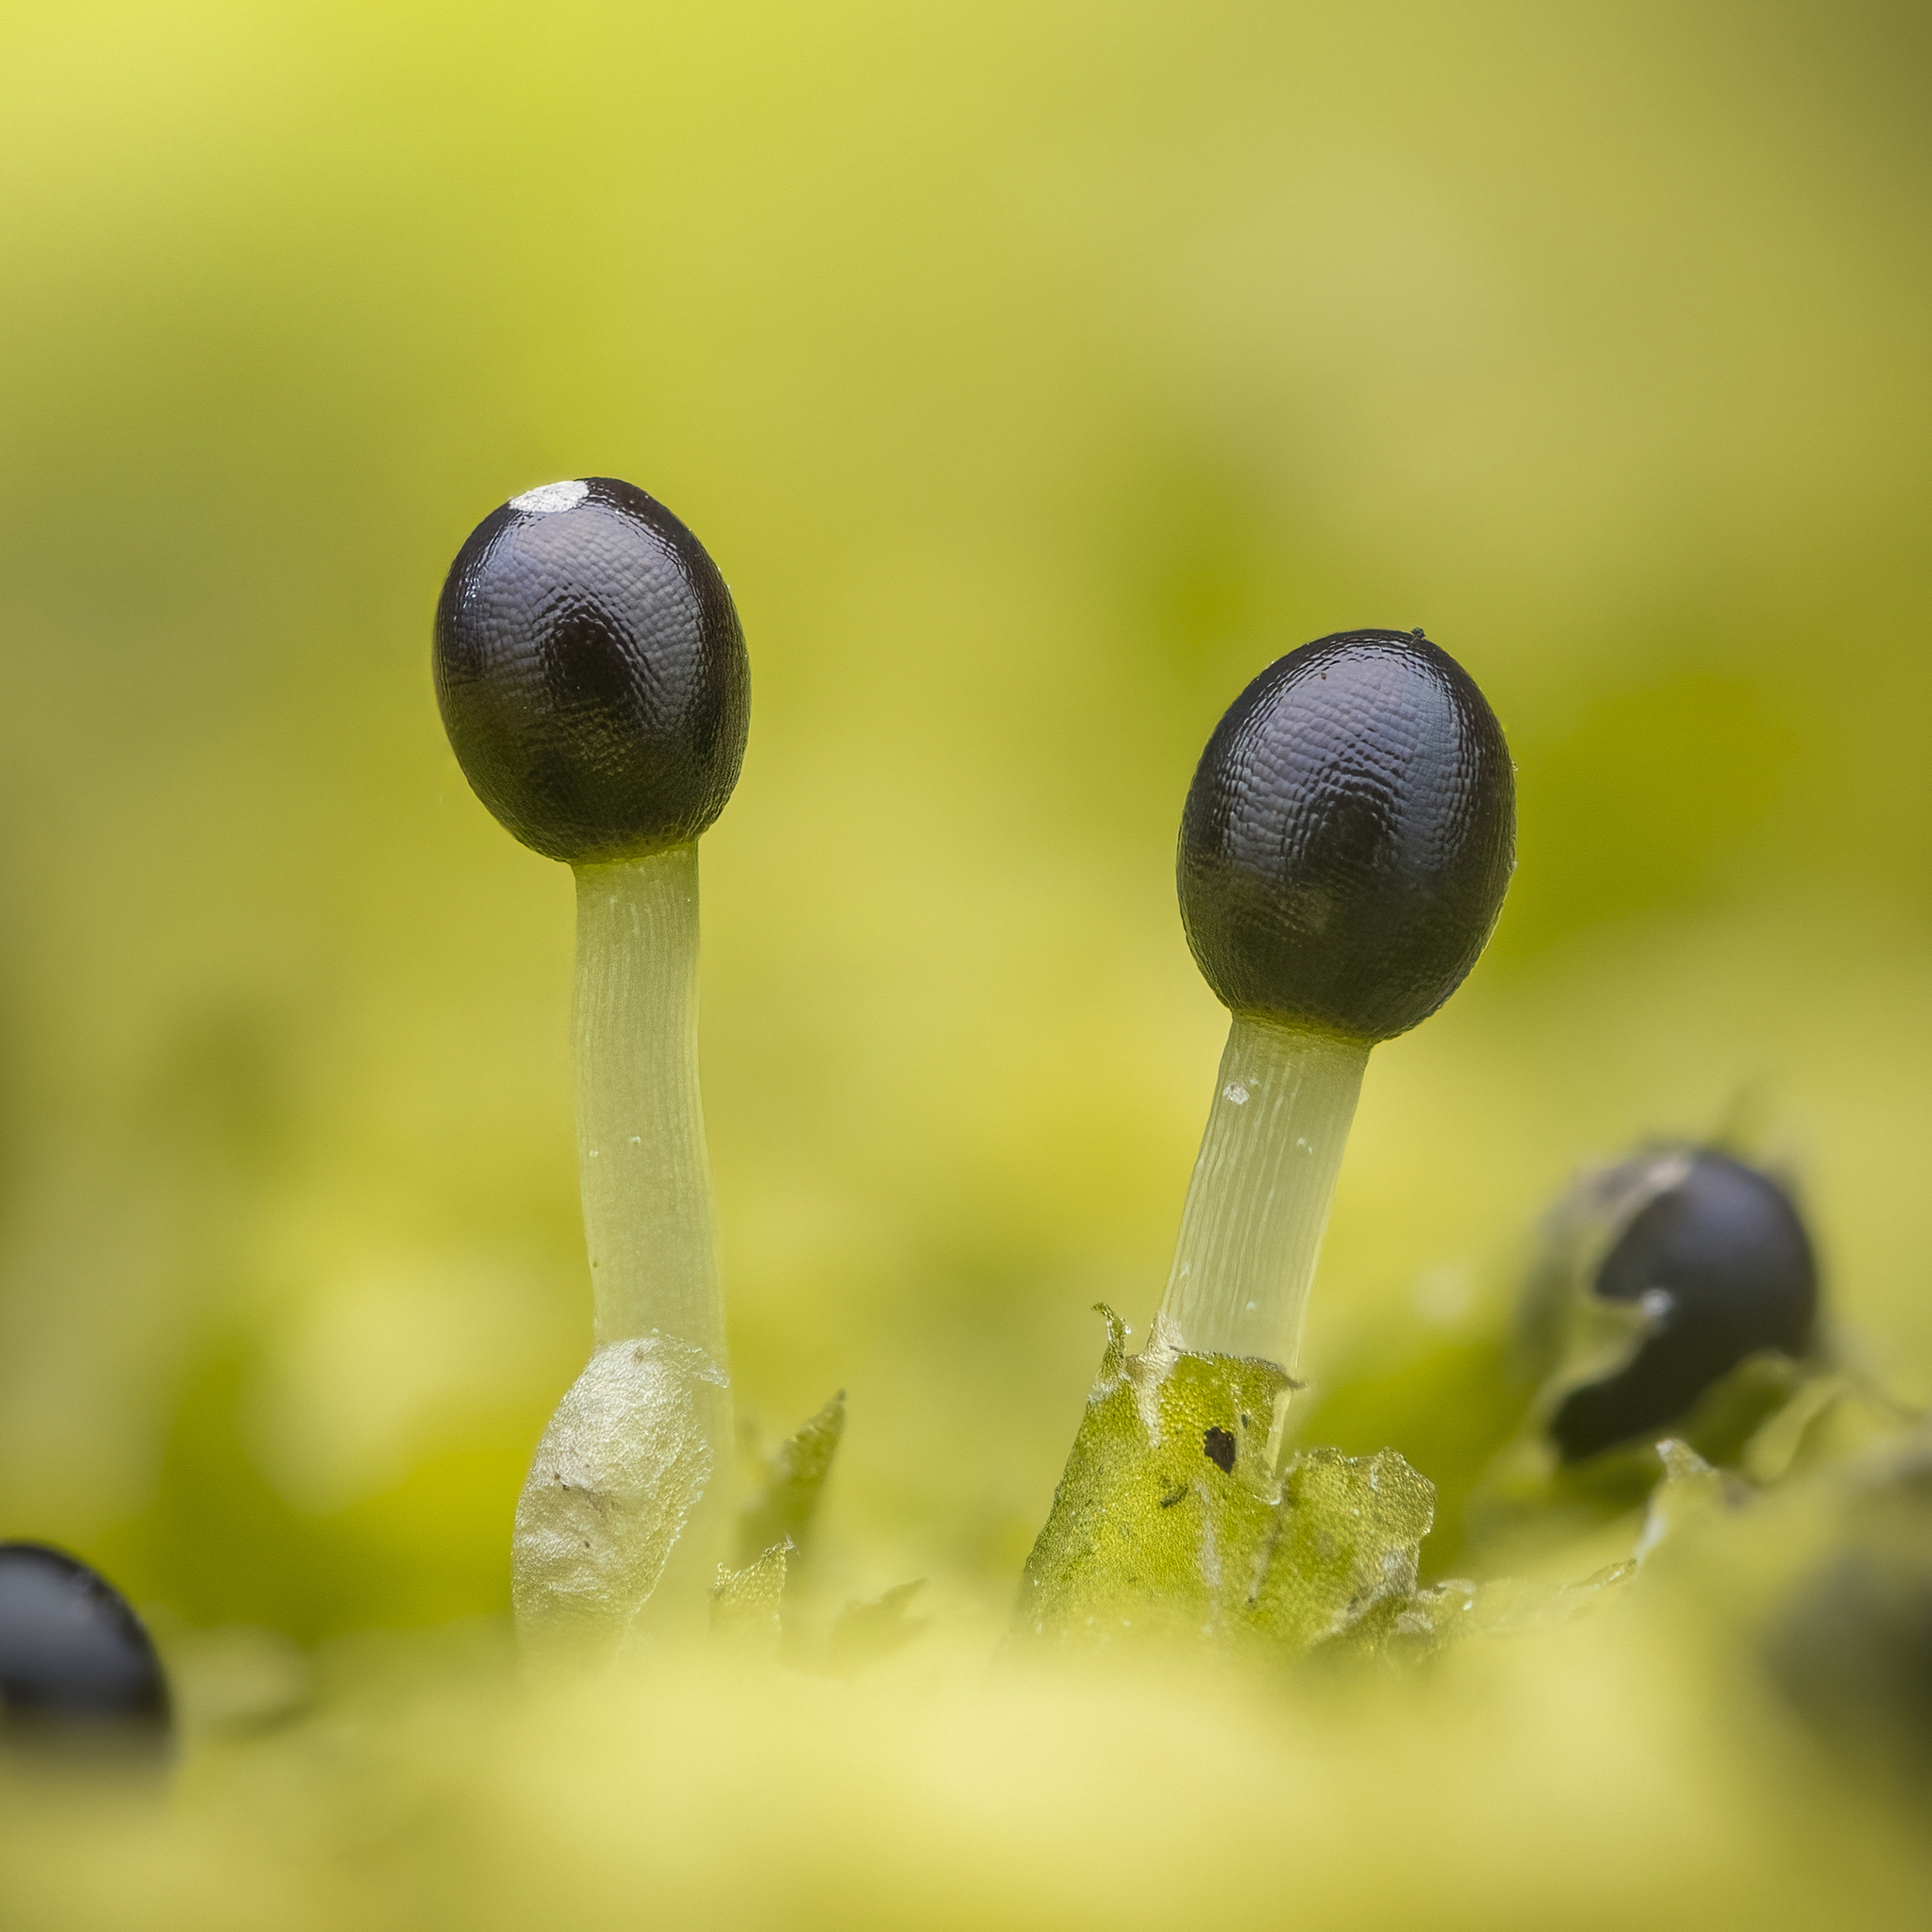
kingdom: Plantae
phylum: Marchantiophyta
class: Jungermanniopsida
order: Jungermanniales
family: Lophocoleaceae
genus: Lophocolea
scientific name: Lophocolea heterophylla
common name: Variable-leaved crestwort
